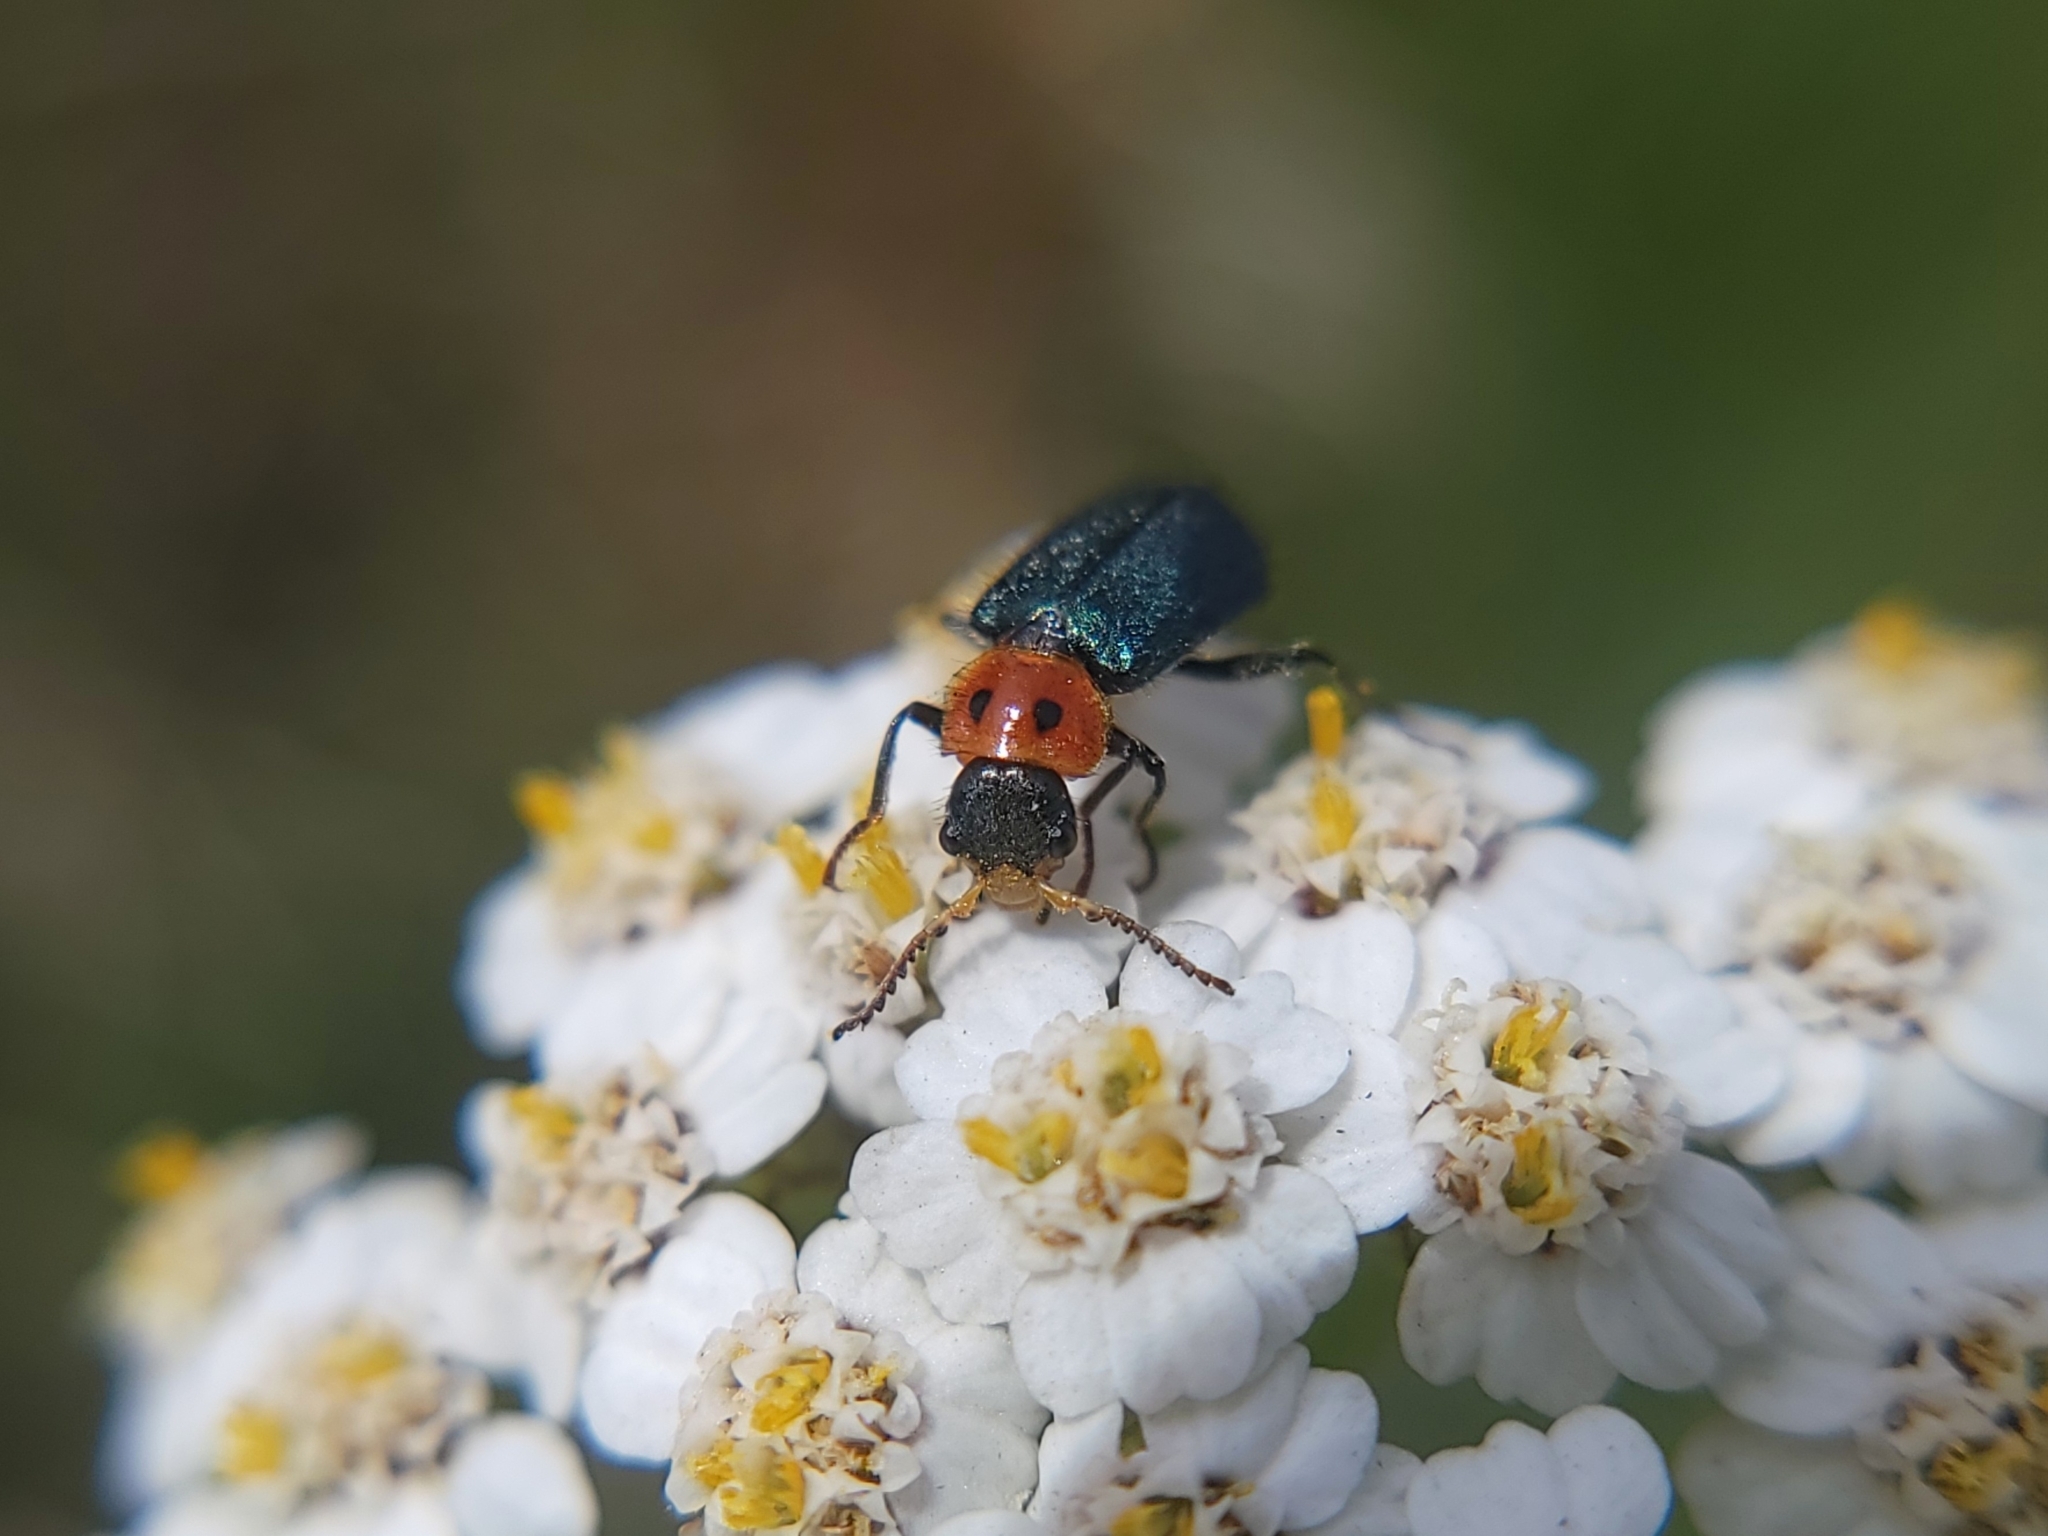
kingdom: Animalia
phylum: Arthropoda
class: Insecta
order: Coleoptera
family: Melyridae
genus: Collops
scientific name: Collops bipunctatus
